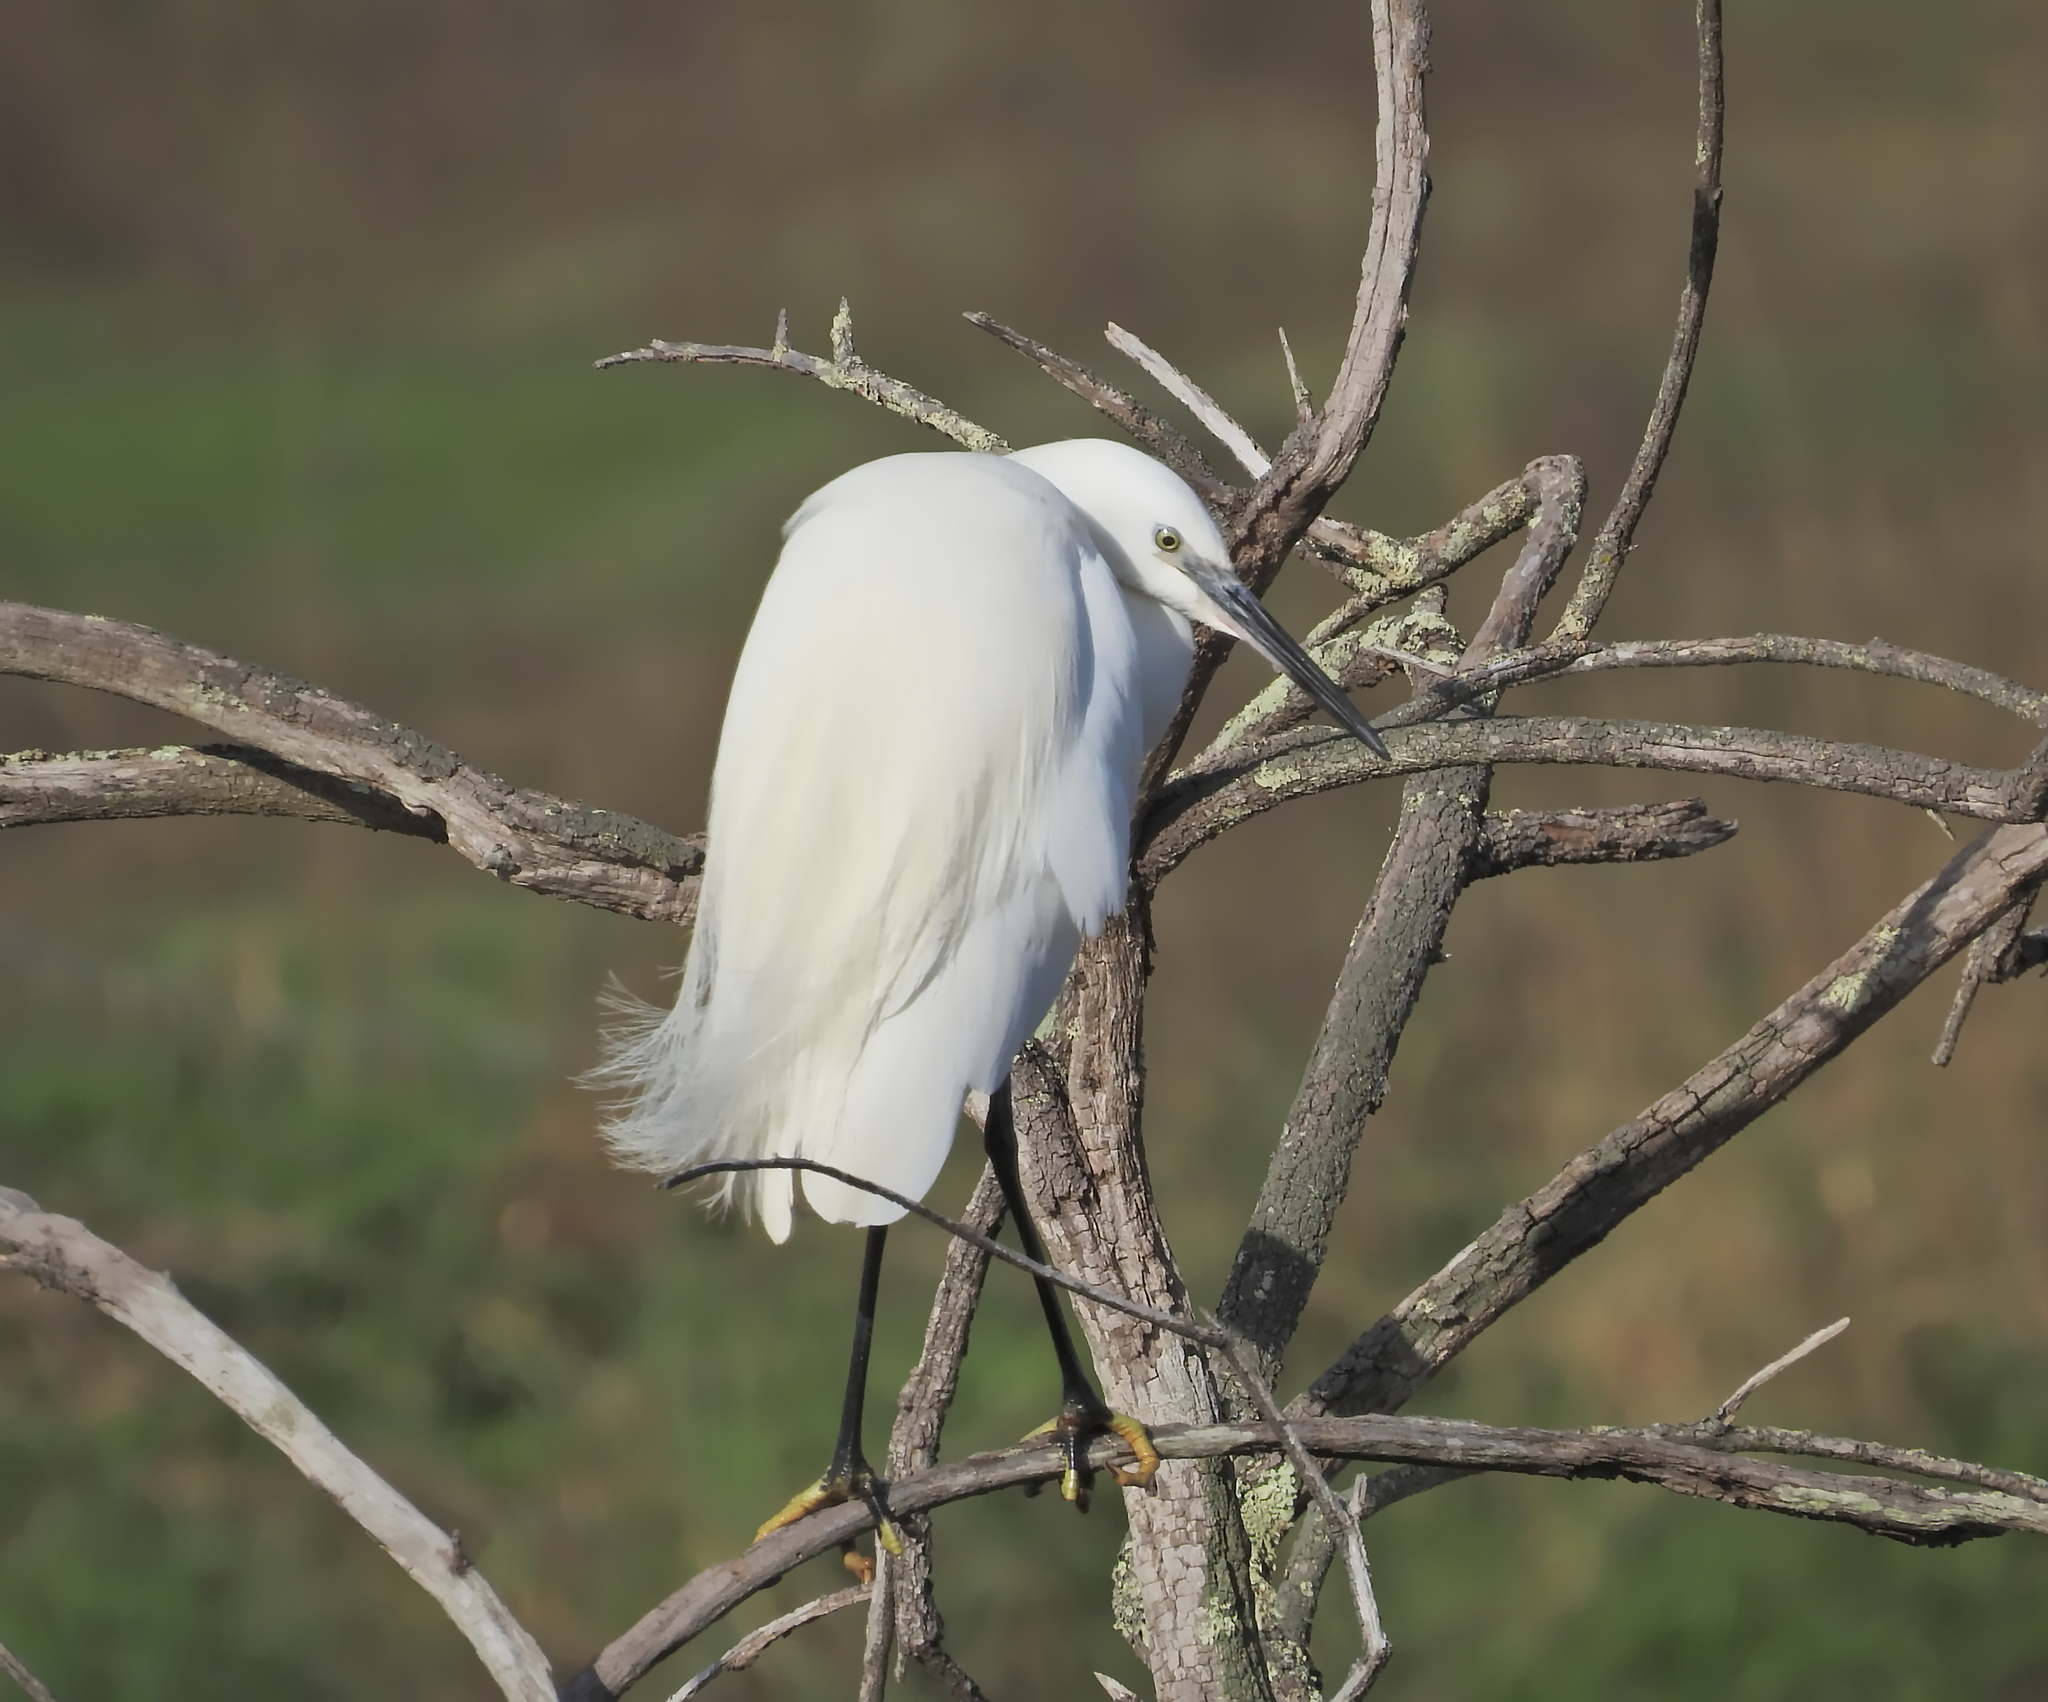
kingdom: Animalia
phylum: Chordata
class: Aves
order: Pelecaniformes
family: Ardeidae
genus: Egretta
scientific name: Egretta garzetta
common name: Little egret
